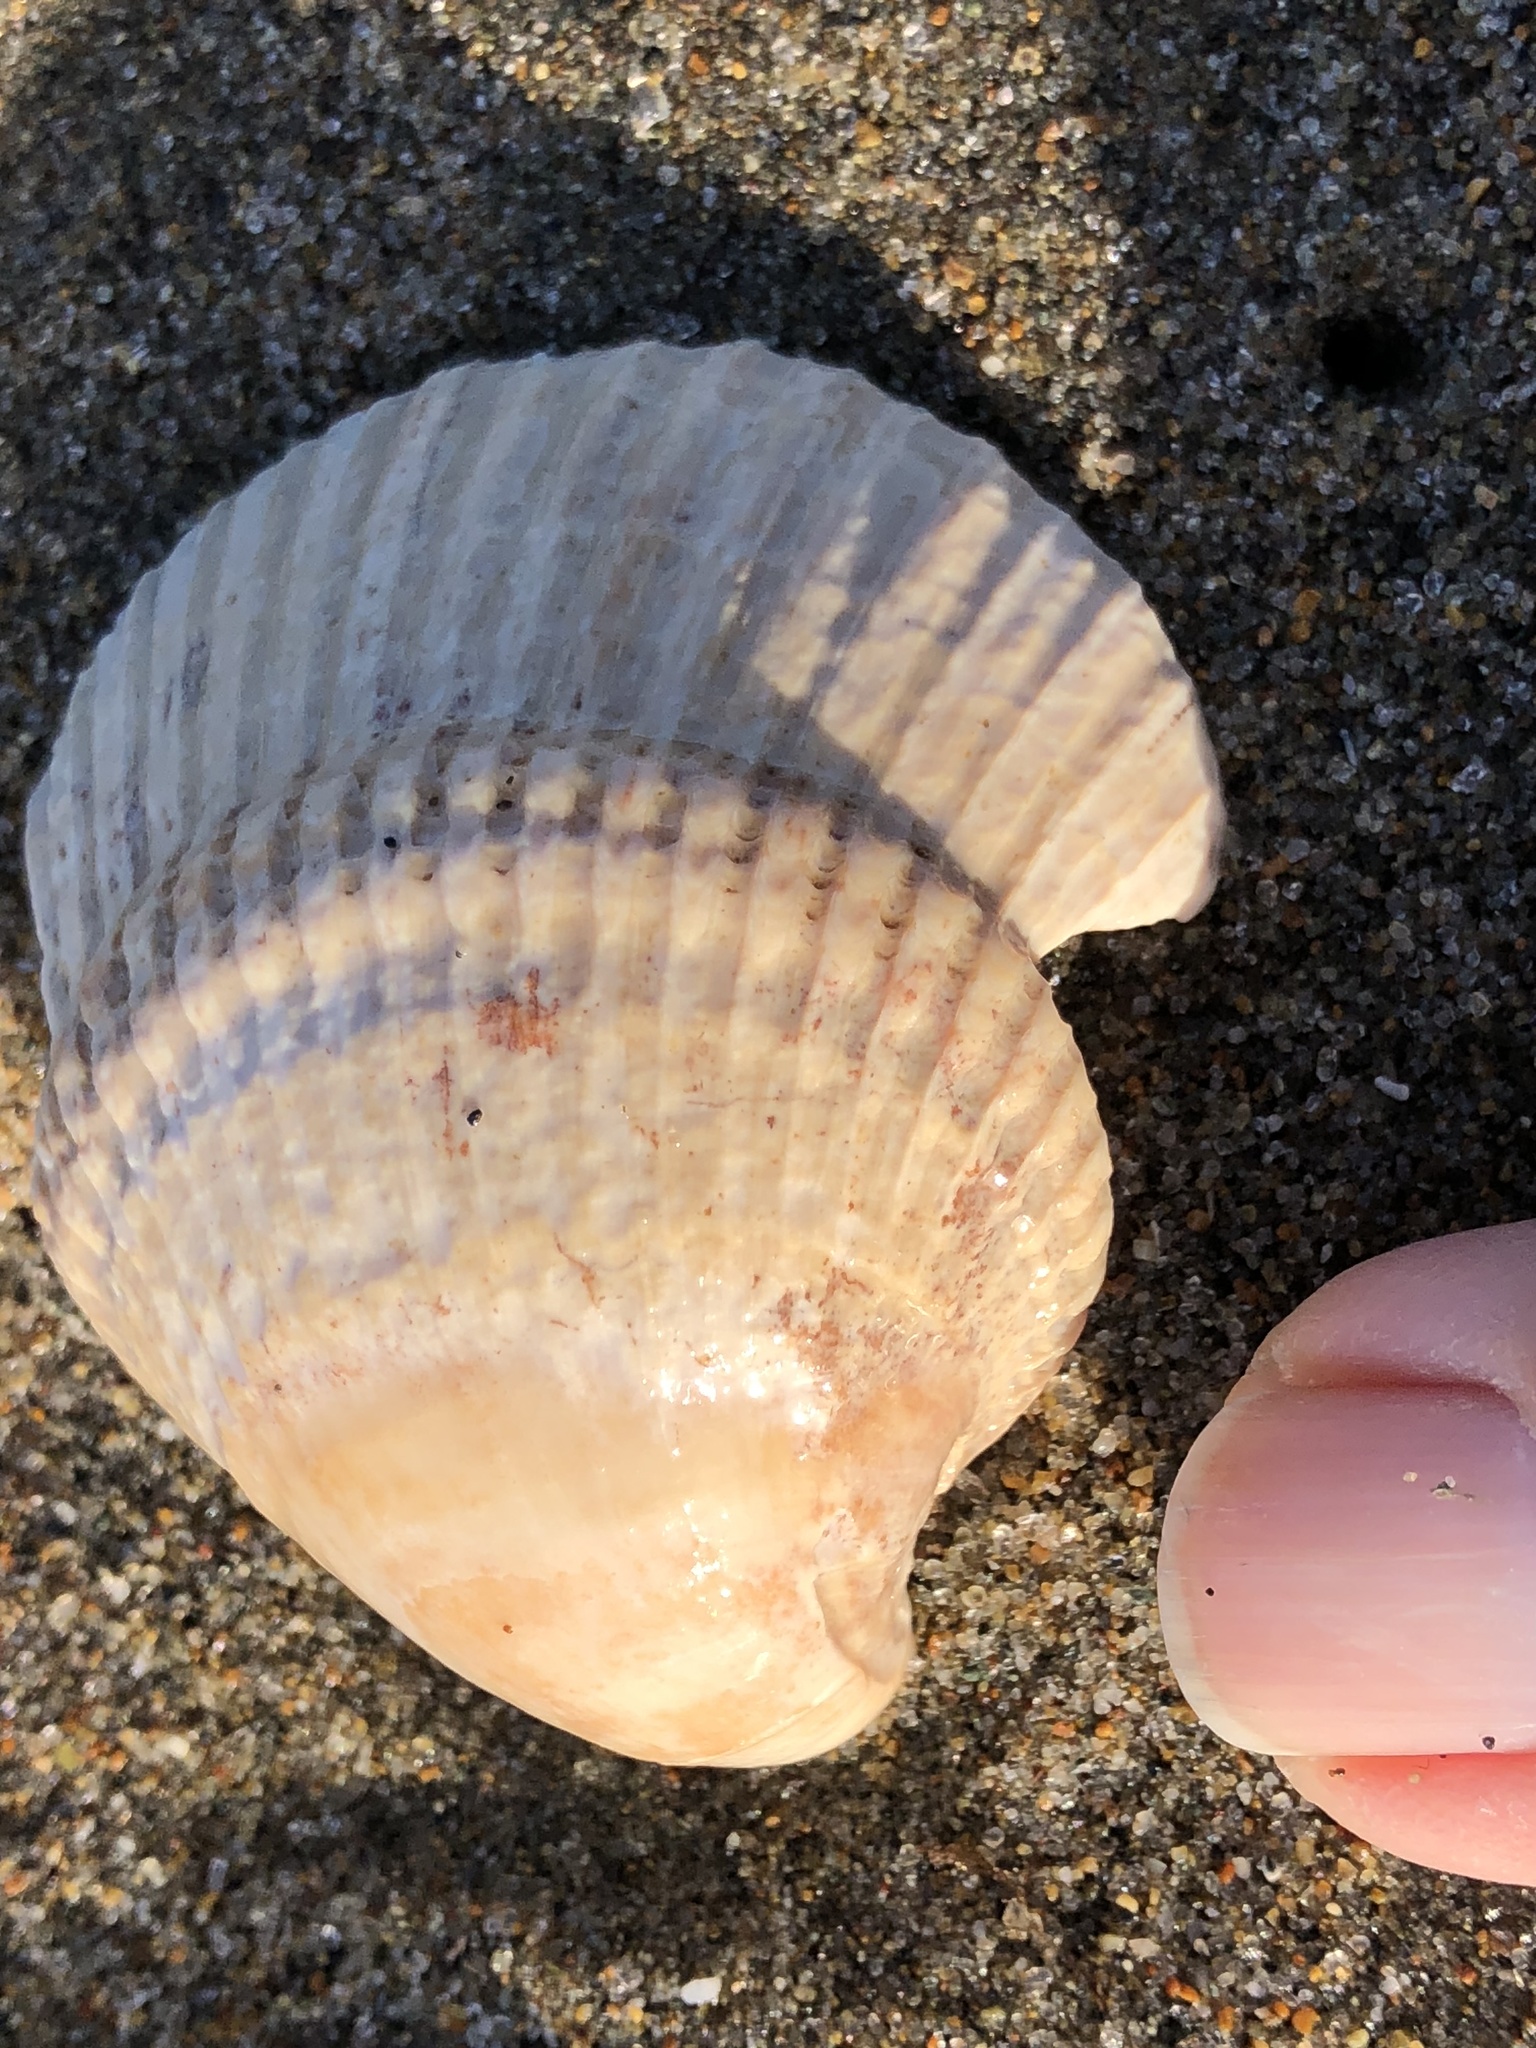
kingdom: Animalia
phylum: Mollusca
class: Bivalvia
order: Cardiida
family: Cardiidae
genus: Clinocardium
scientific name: Clinocardium nuttallii
